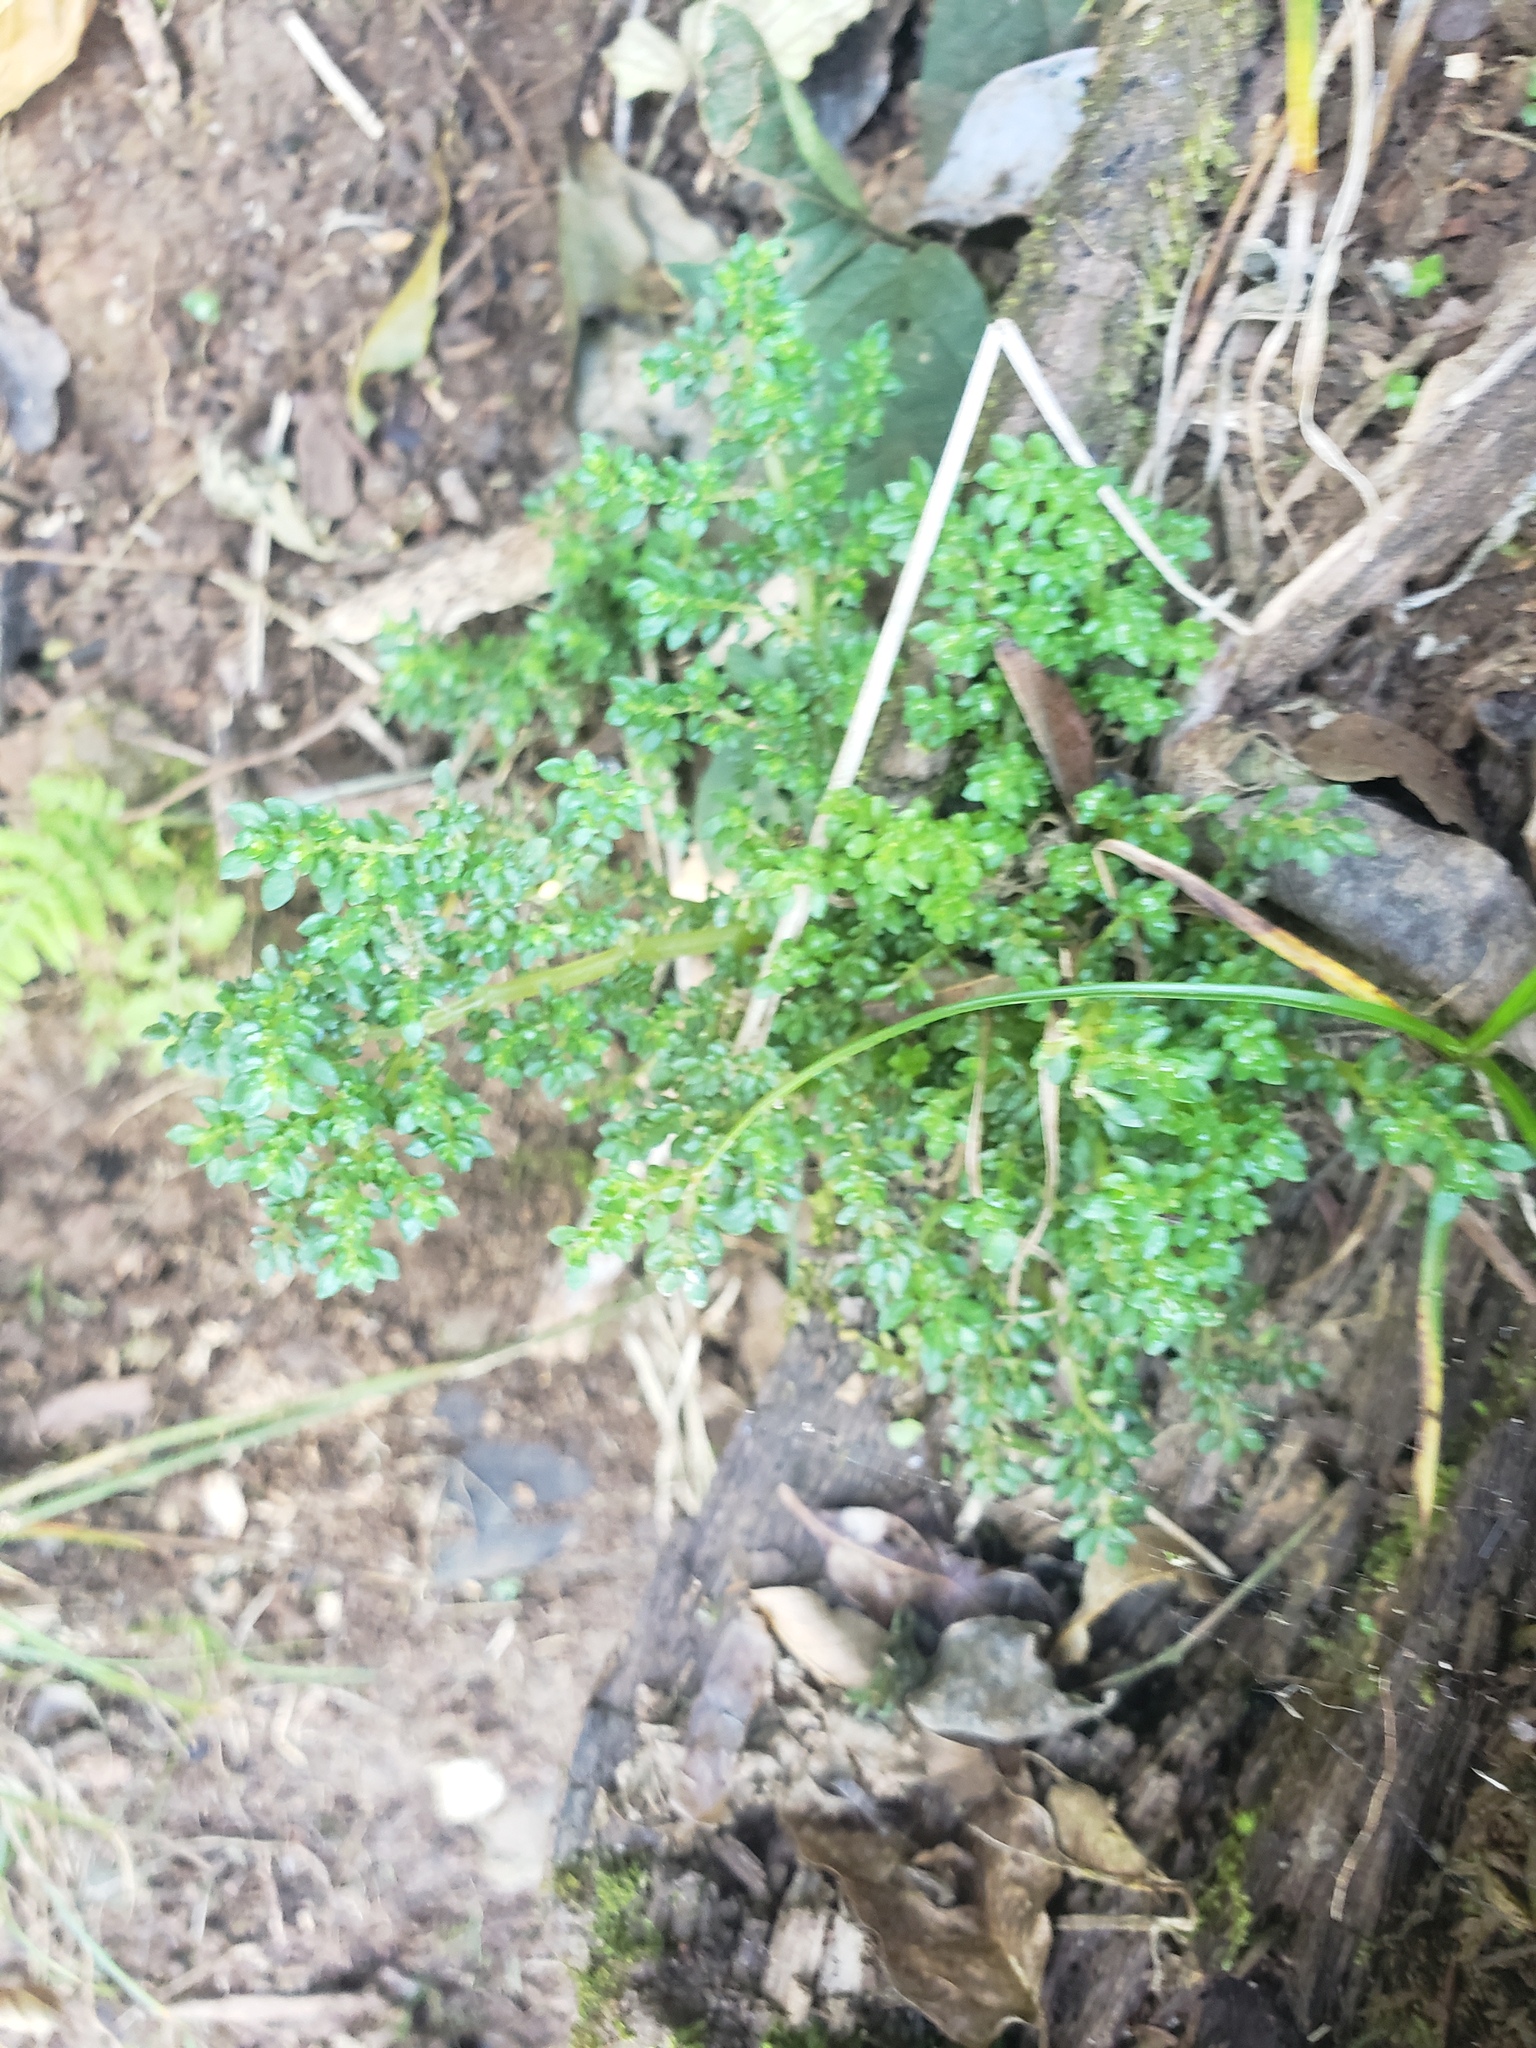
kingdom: Plantae
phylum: Tracheophyta
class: Magnoliopsida
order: Rosales
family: Urticaceae
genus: Pilea
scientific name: Pilea microphylla
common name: Artillery-plant
